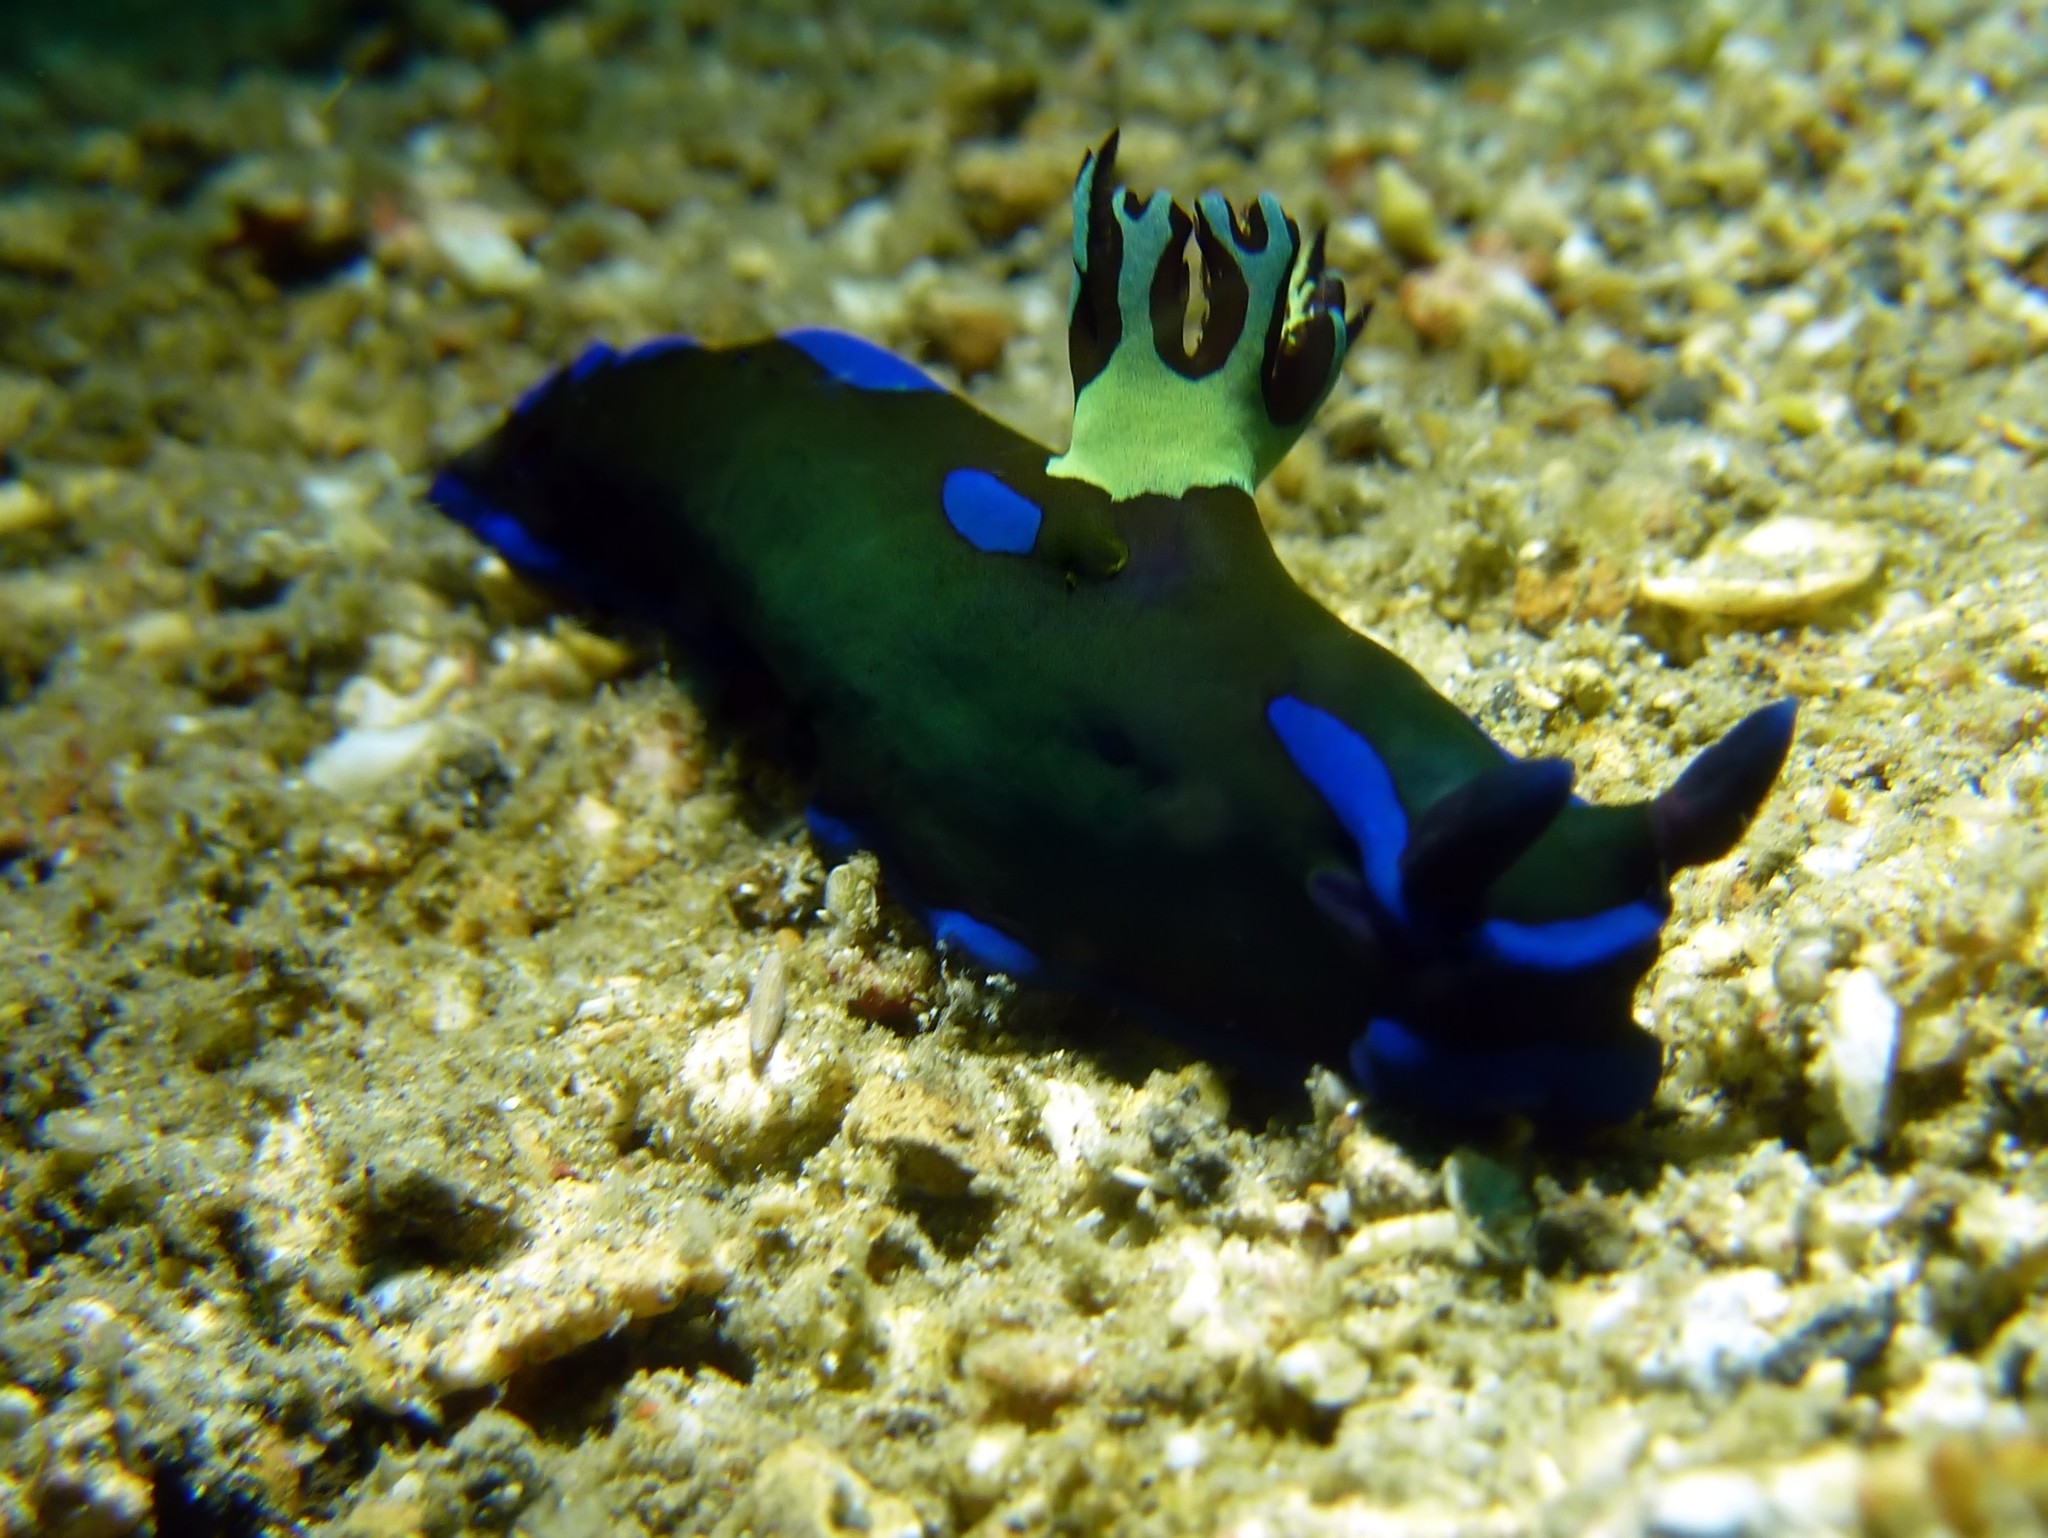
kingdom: Animalia
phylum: Mollusca
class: Gastropoda
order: Nudibranchia
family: Polyceridae
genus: Tambja
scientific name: Tambja morosa
